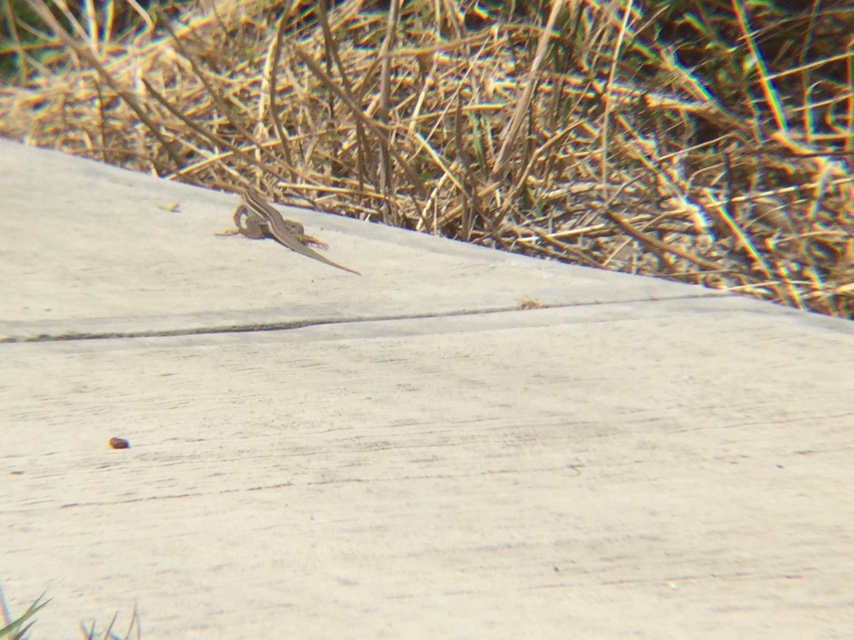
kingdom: Animalia
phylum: Chordata
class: Squamata
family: Teiidae
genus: Aspidoscelis
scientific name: Aspidoscelis gularis
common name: Eastern spotted whiptail
